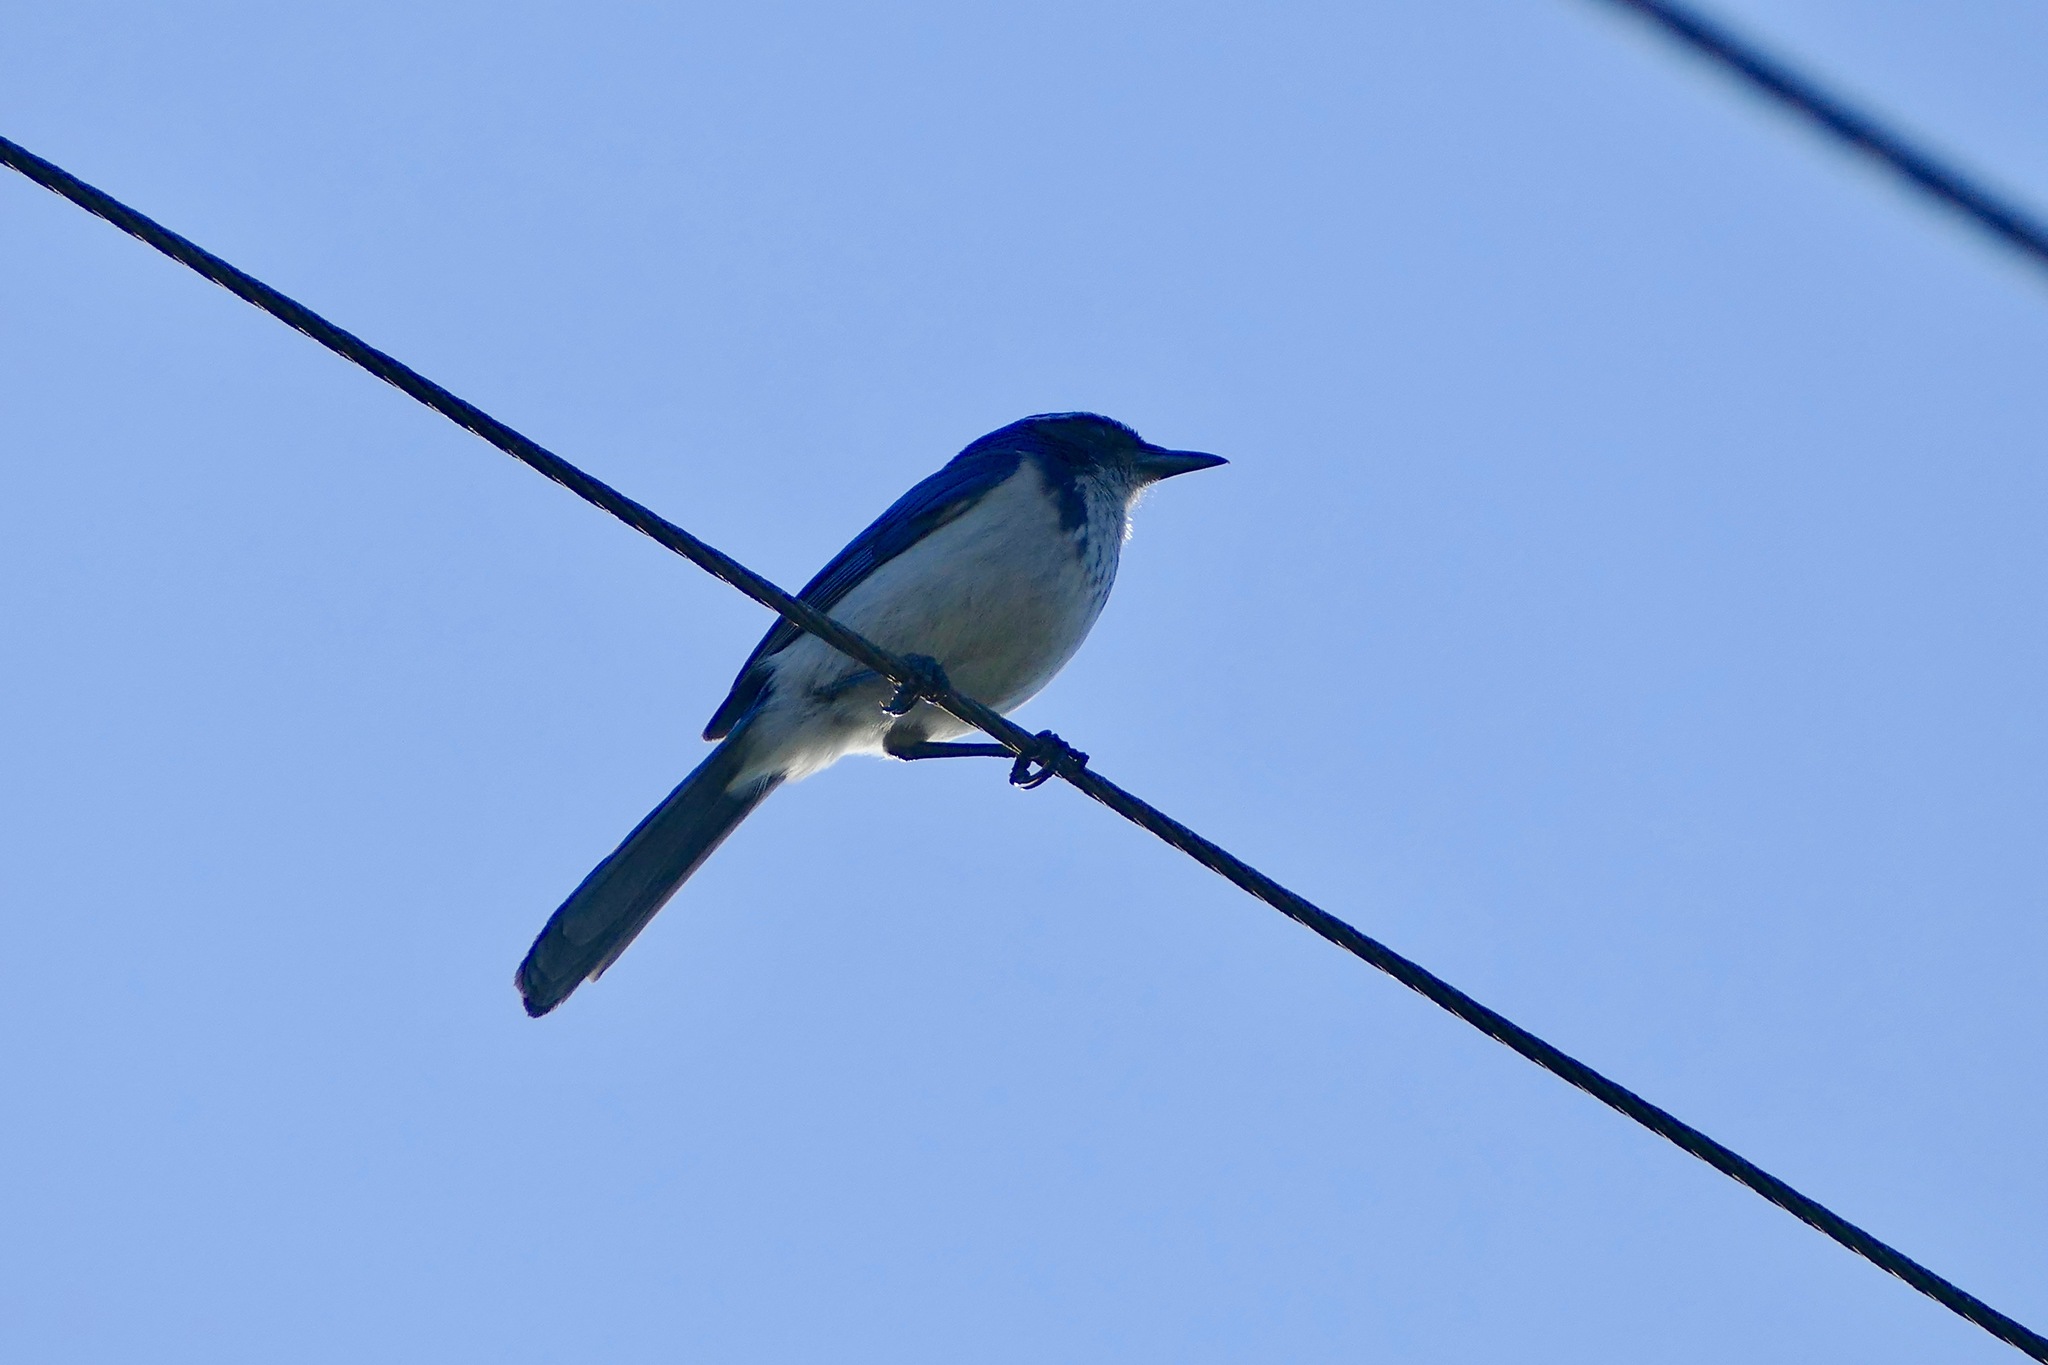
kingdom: Animalia
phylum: Chordata
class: Aves
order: Passeriformes
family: Corvidae
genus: Aphelocoma
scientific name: Aphelocoma californica
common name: California scrub-jay
